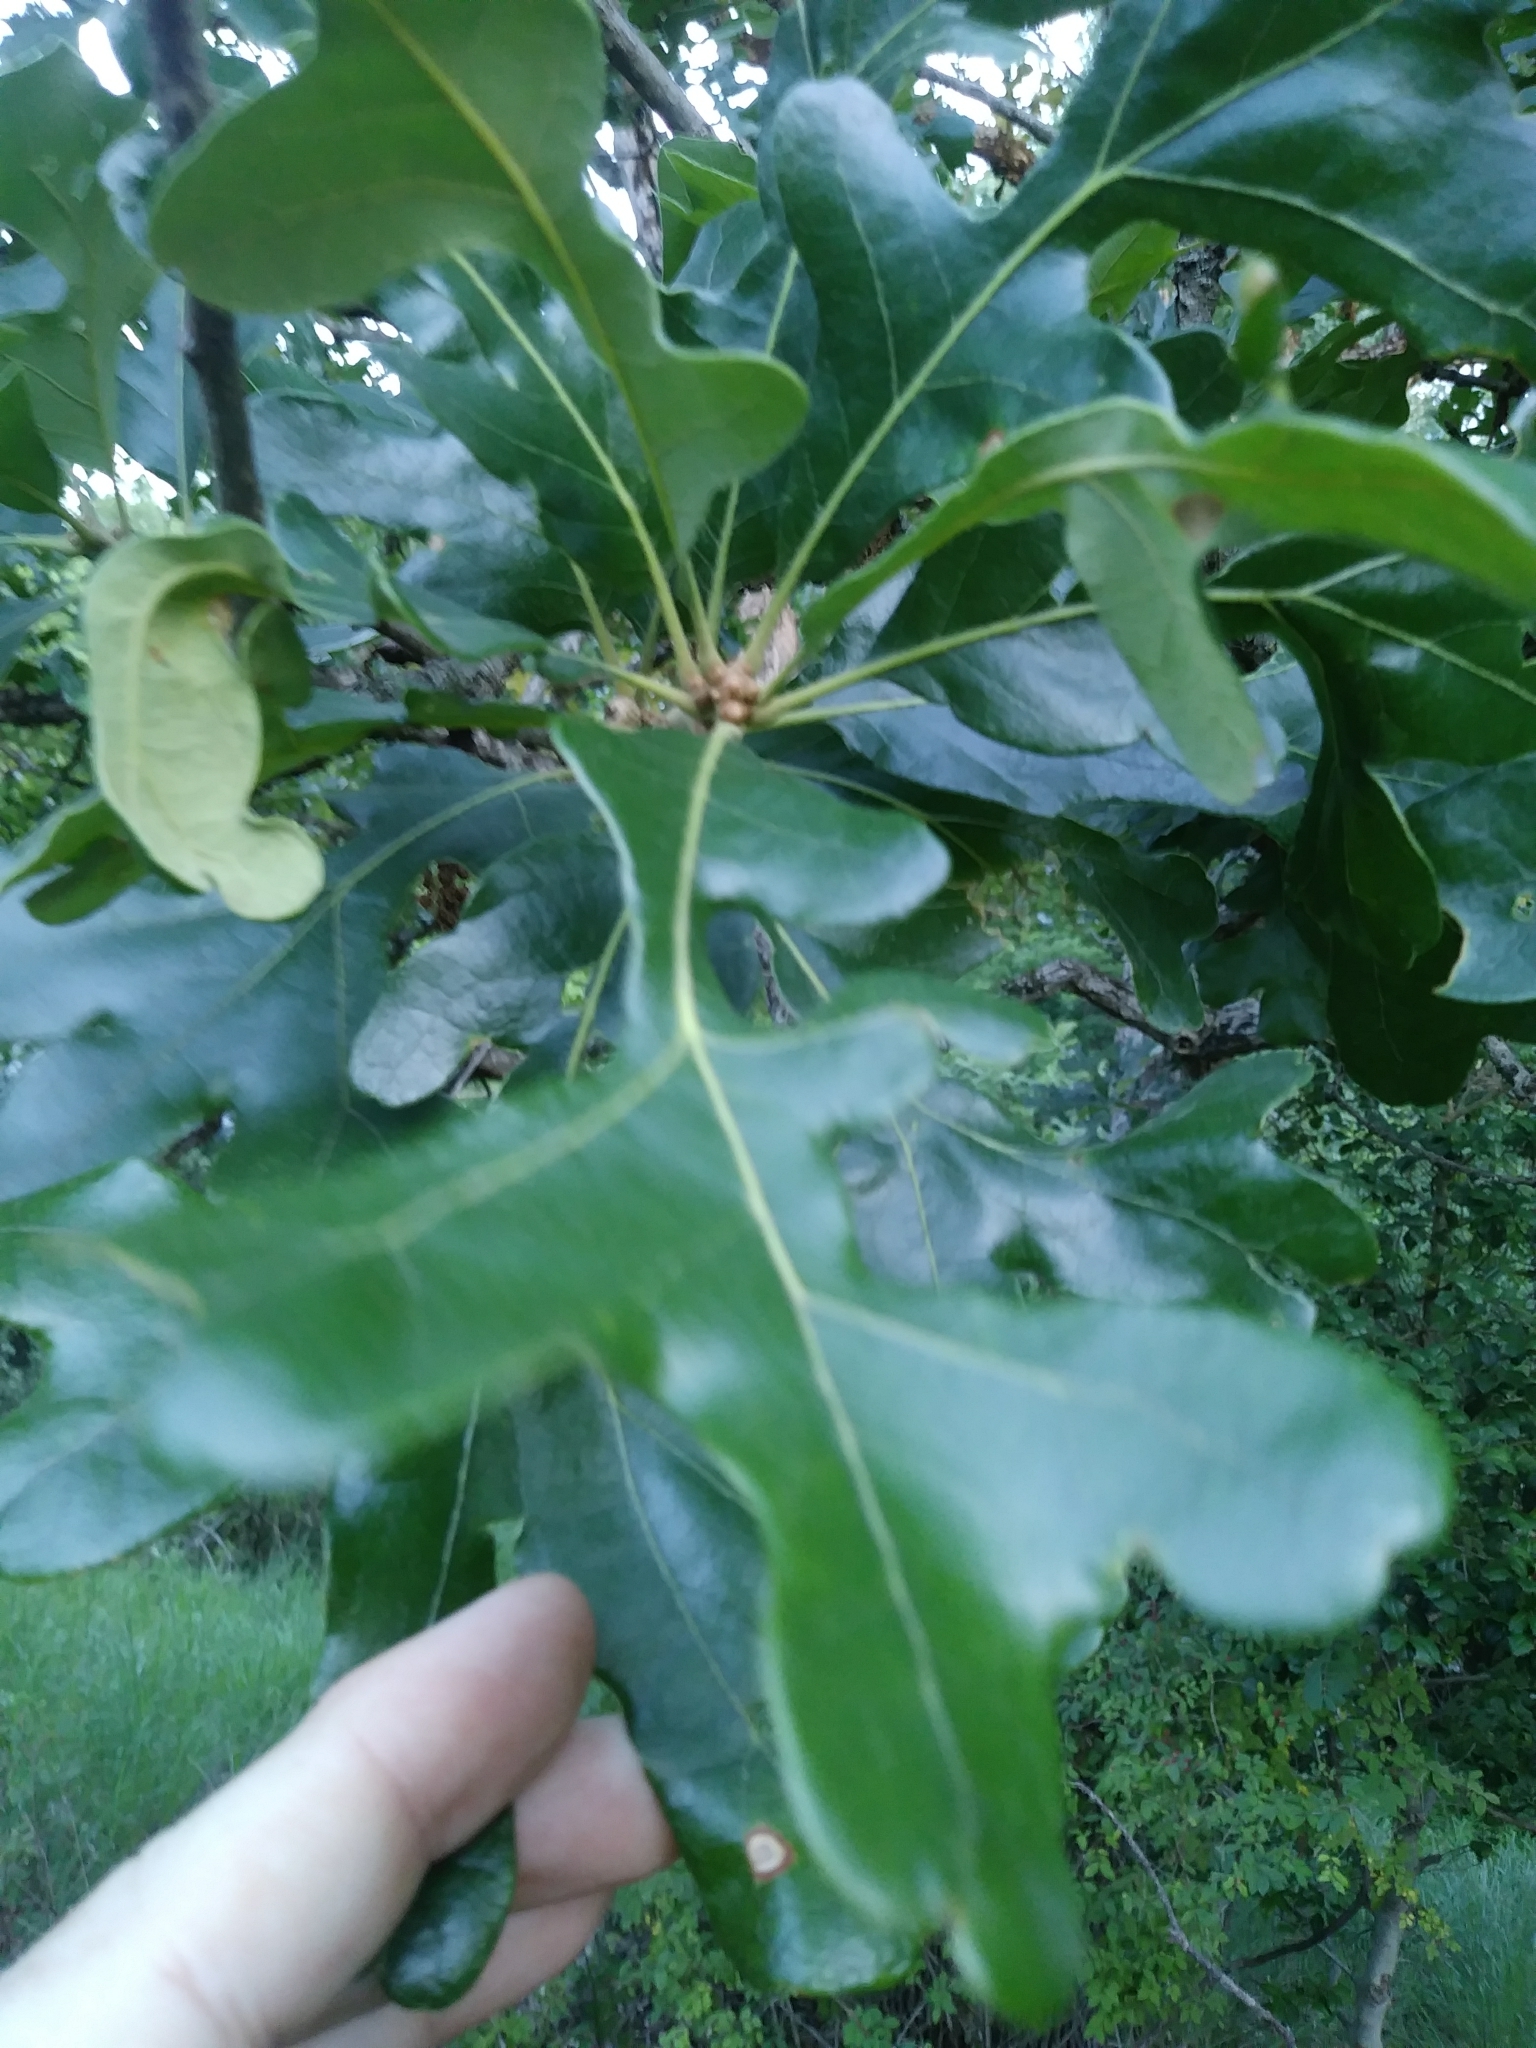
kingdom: Plantae
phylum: Tracheophyta
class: Magnoliopsida
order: Fagales
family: Fagaceae
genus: Quercus
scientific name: Quercus stellata
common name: Post oak
